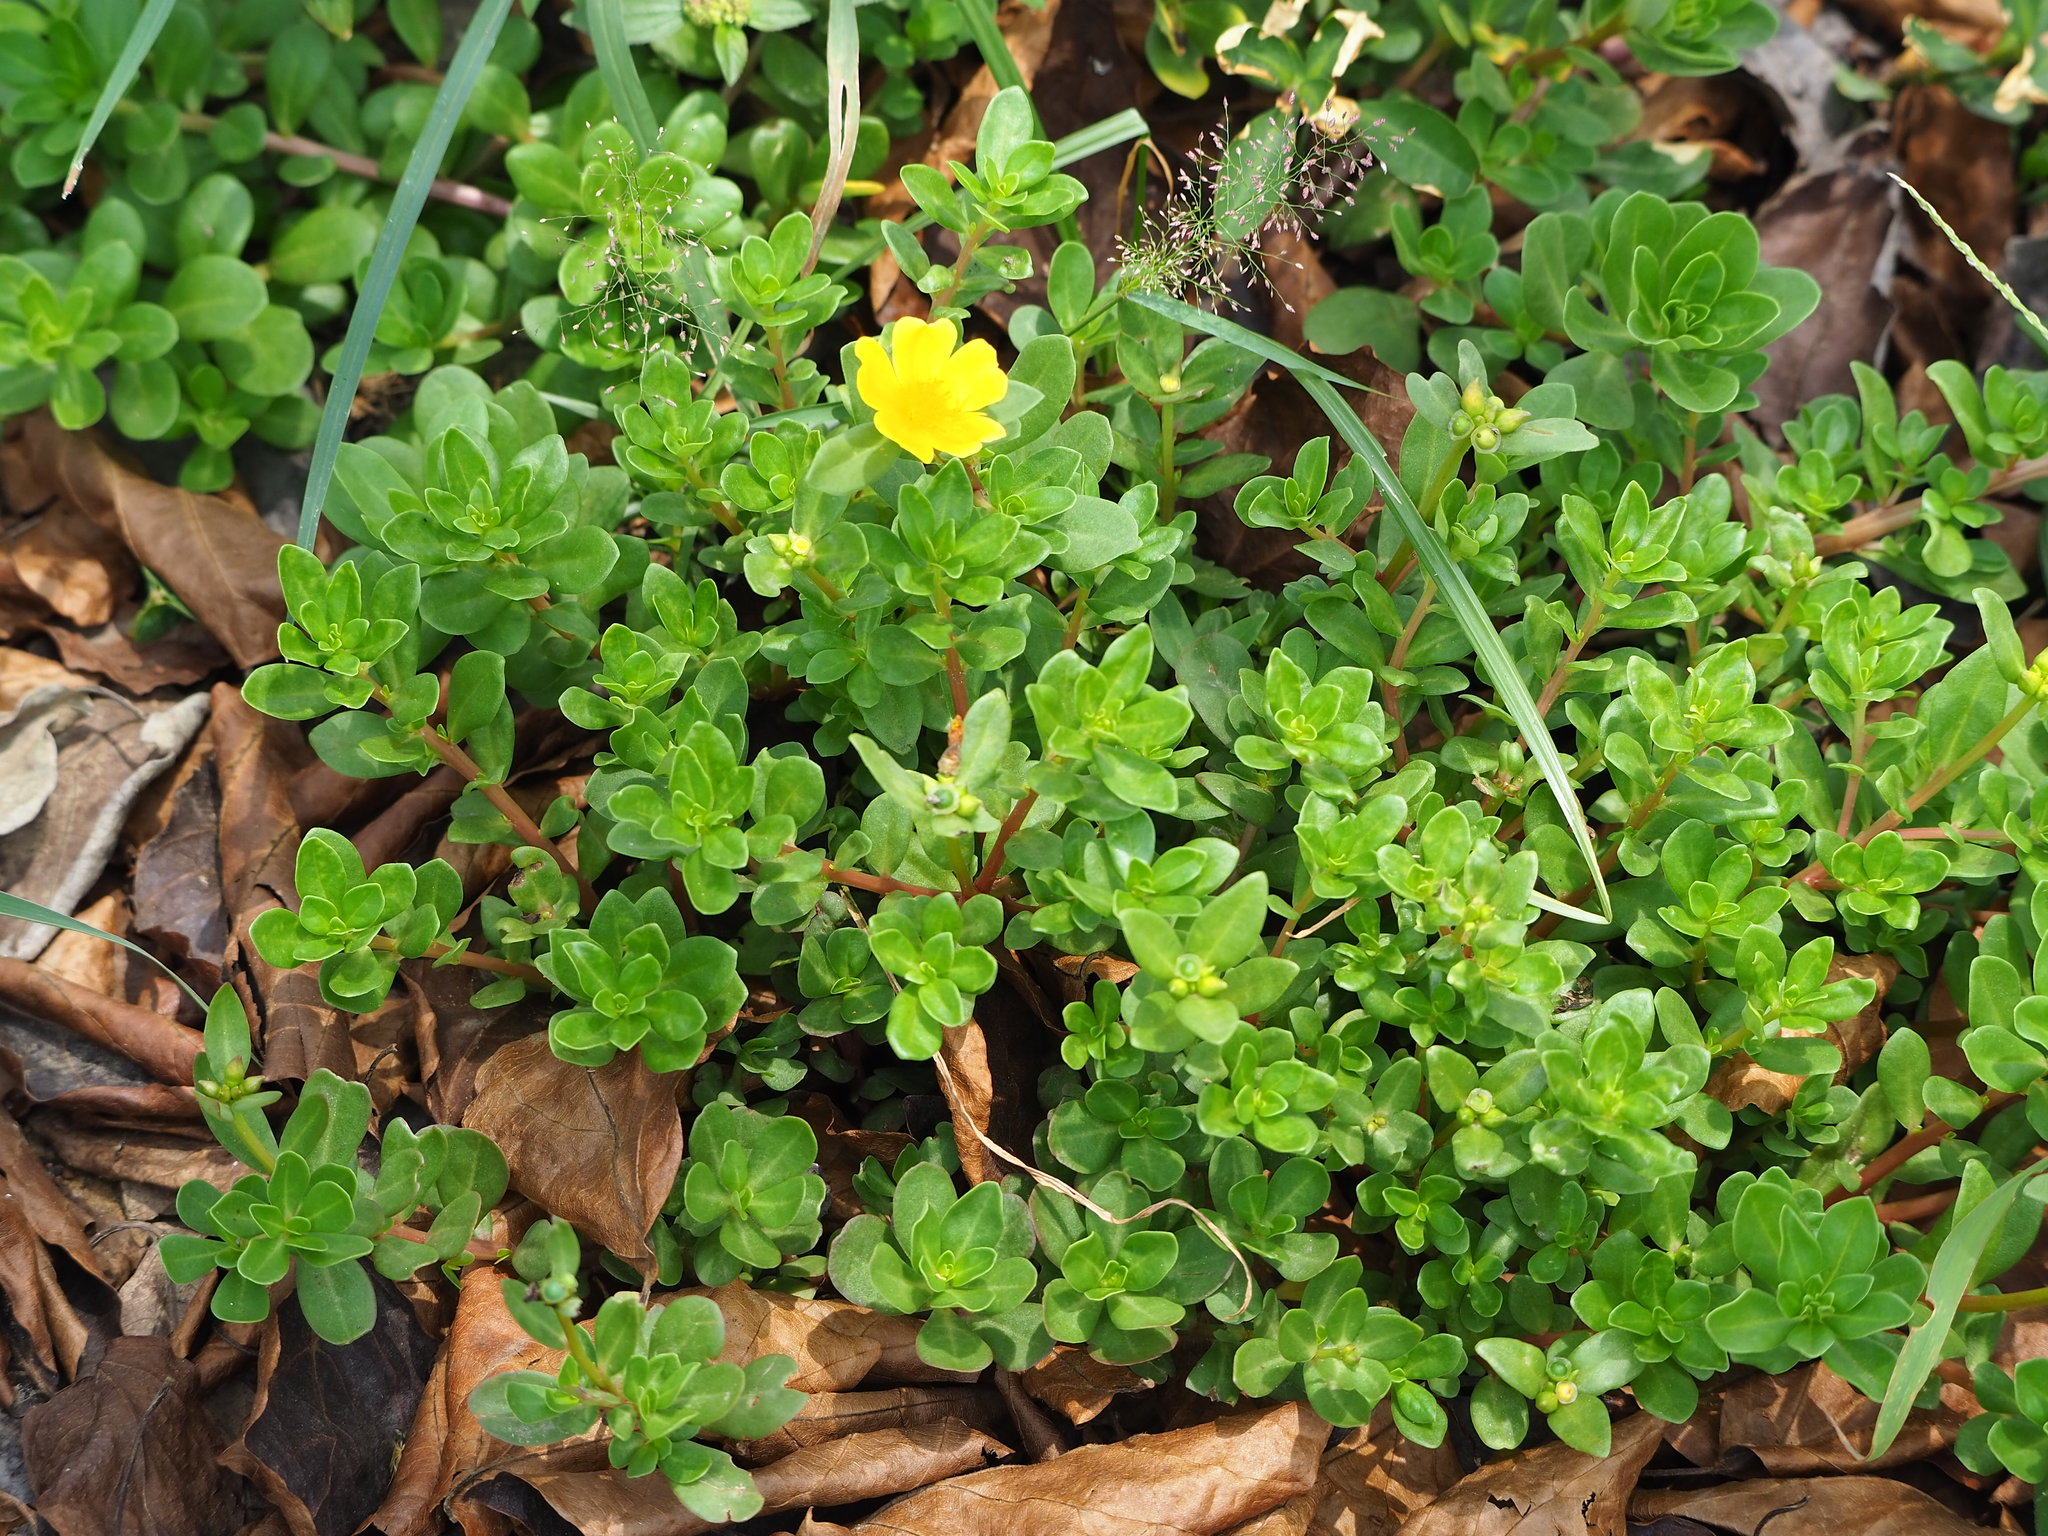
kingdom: Plantae
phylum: Tracheophyta
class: Magnoliopsida
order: Caryophyllales
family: Portulacaceae
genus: Portulaca
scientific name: Portulaca umbraticola
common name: Wingpod purslane
